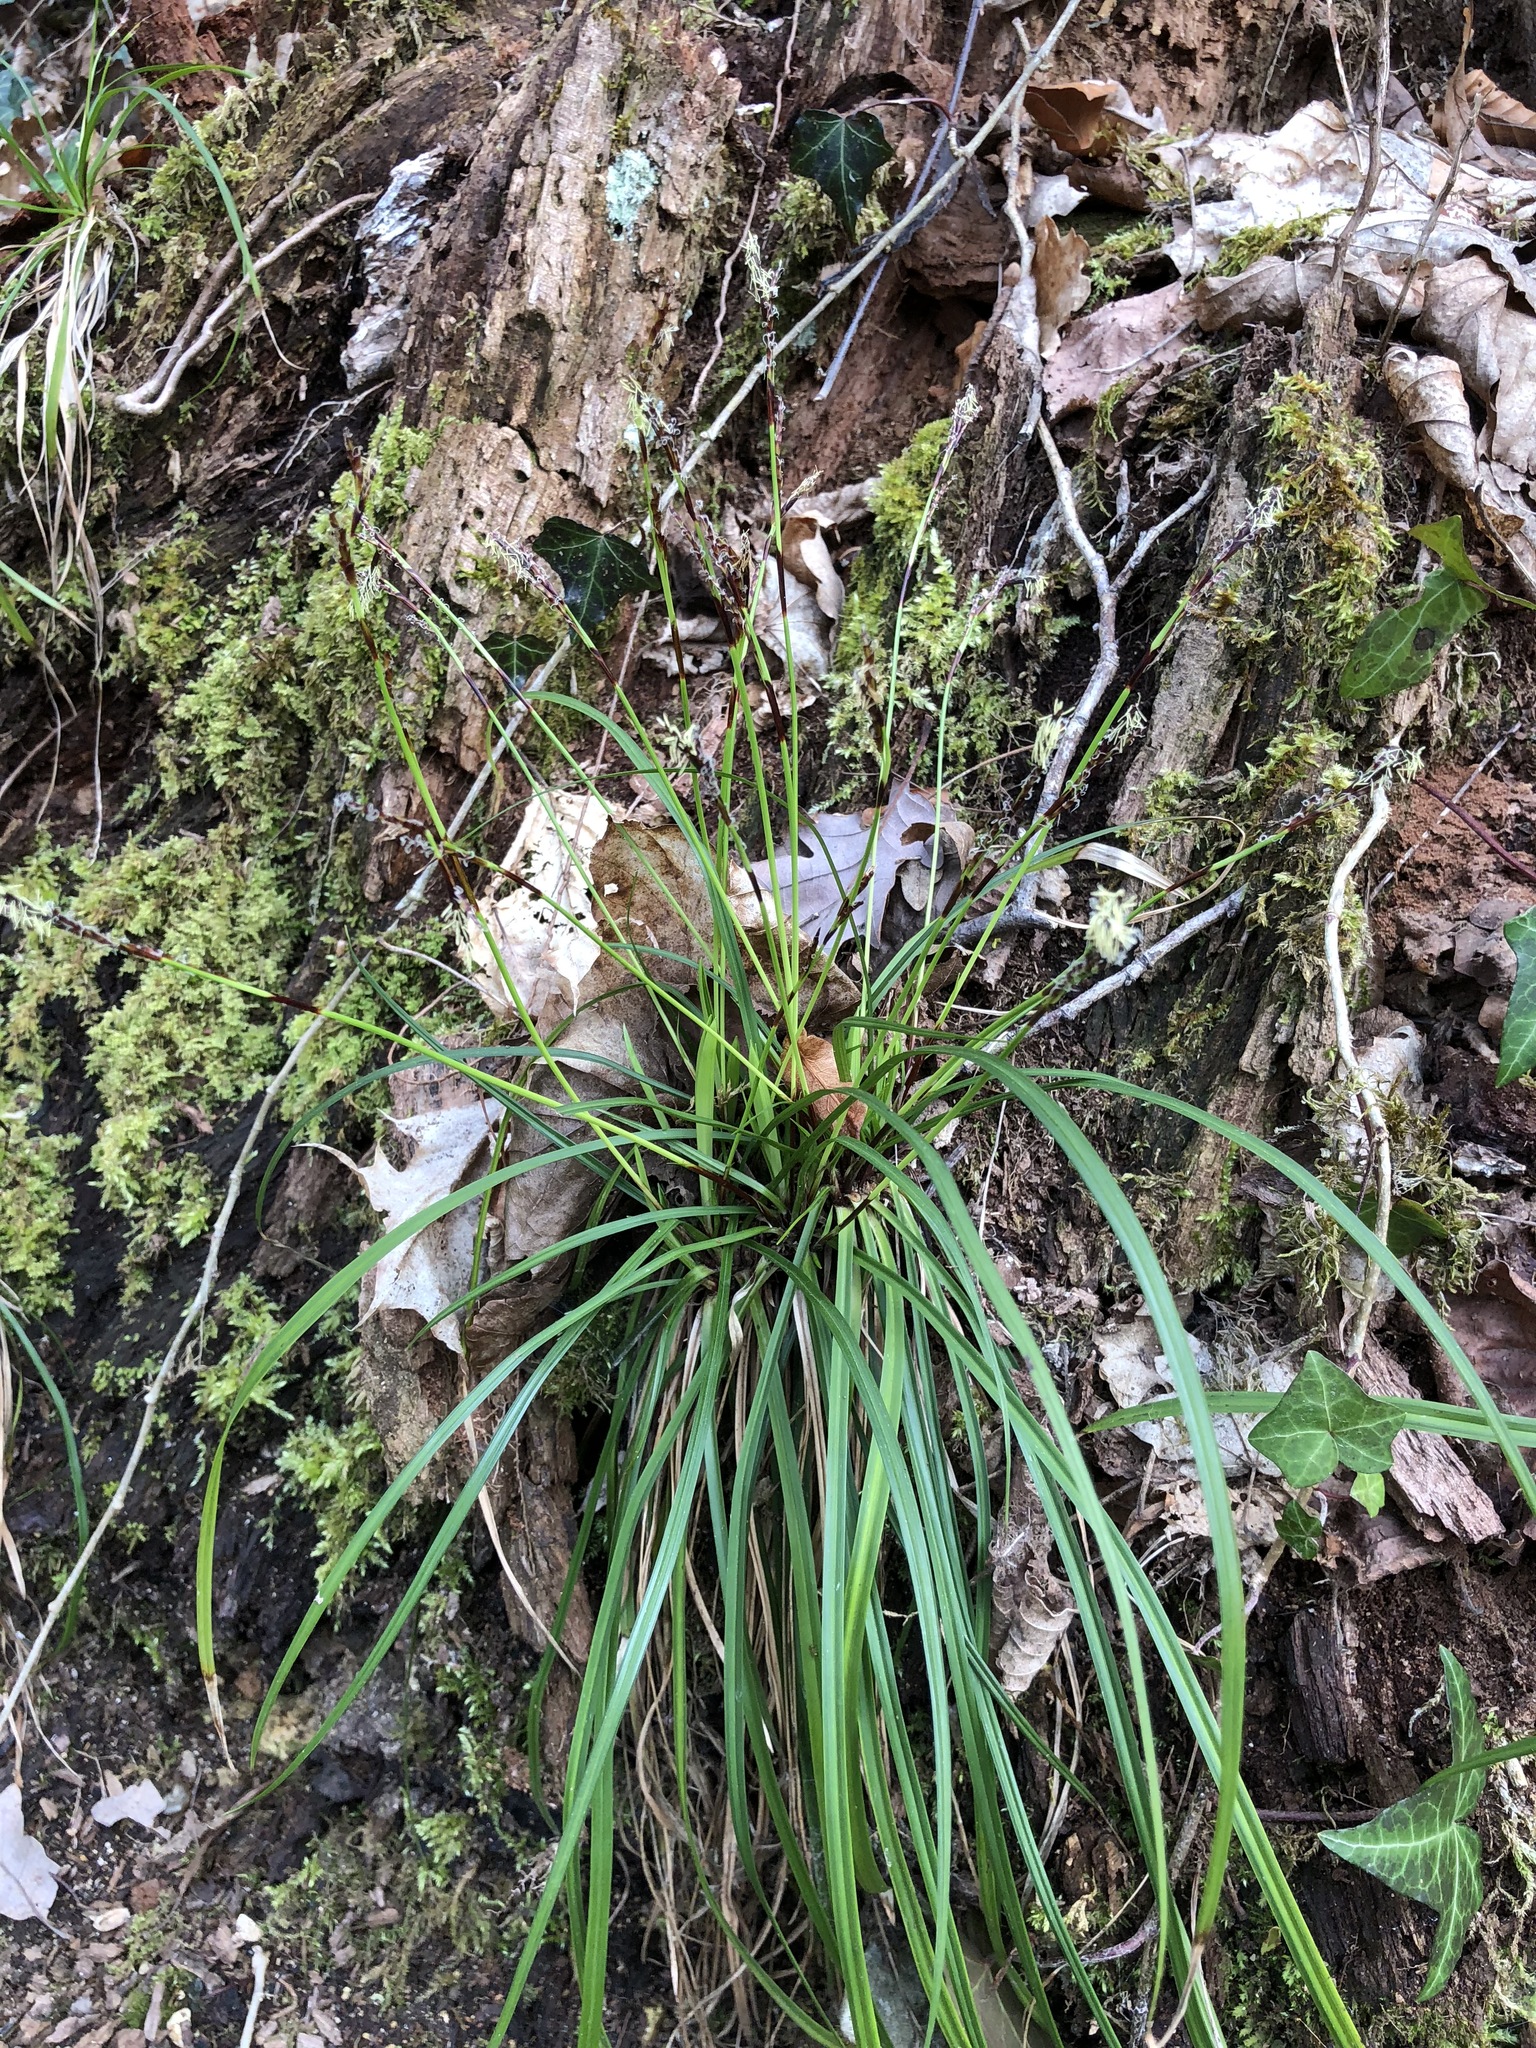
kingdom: Plantae
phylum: Tracheophyta
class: Liliopsida
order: Poales
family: Cyperaceae
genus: Carex
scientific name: Carex digitata
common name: Fingered sedge
